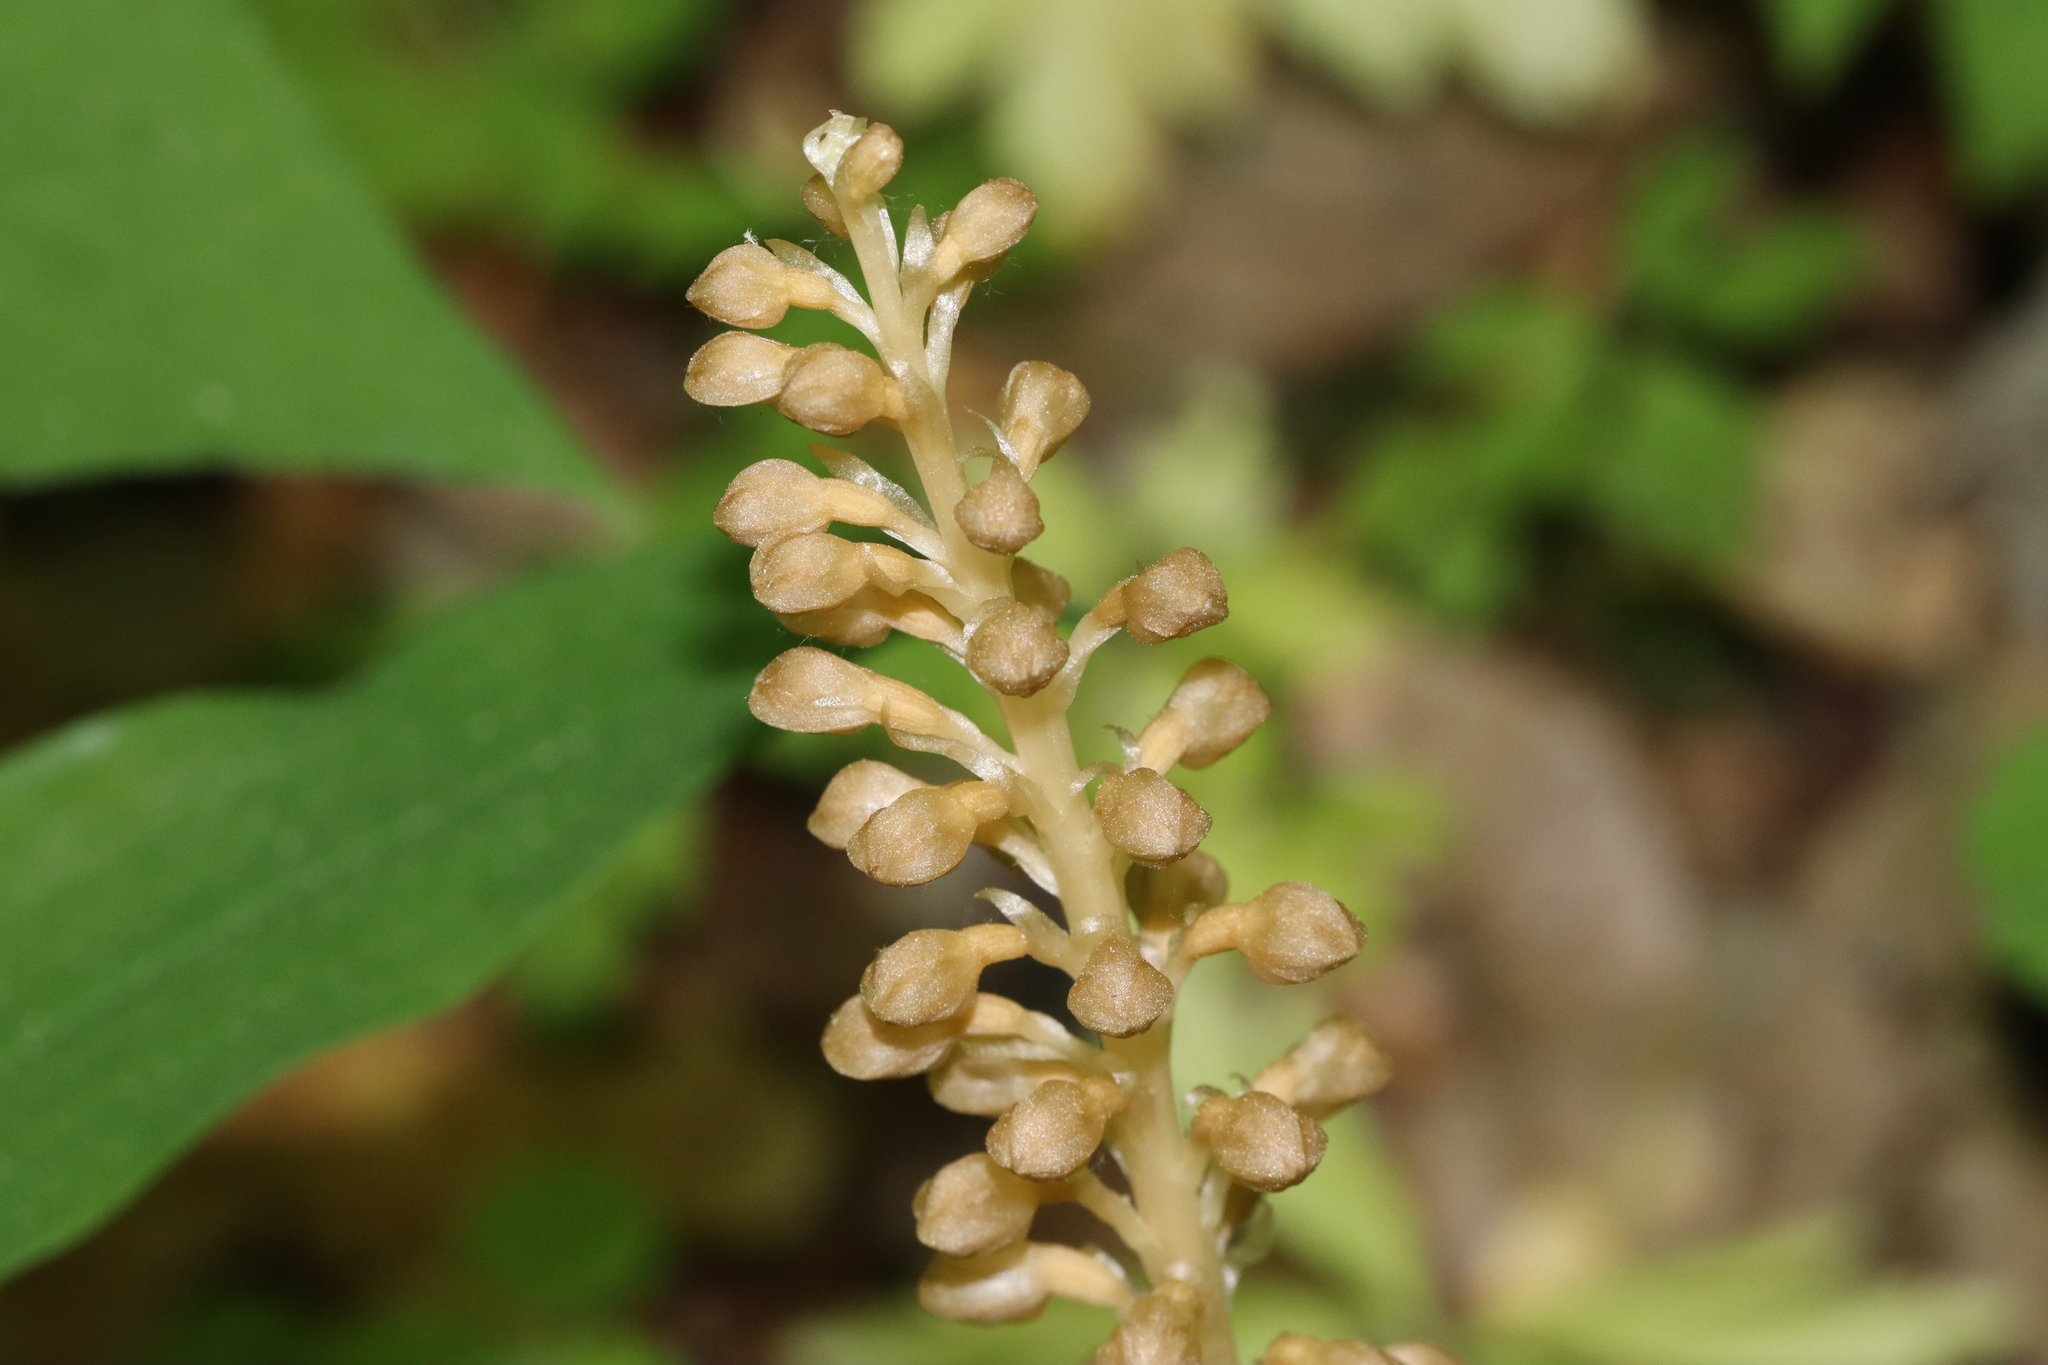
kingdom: Plantae
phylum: Tracheophyta
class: Liliopsida
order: Asparagales
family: Orchidaceae
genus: Neottia
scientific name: Neottia nidus-avis
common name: Bird's-nest orchid
